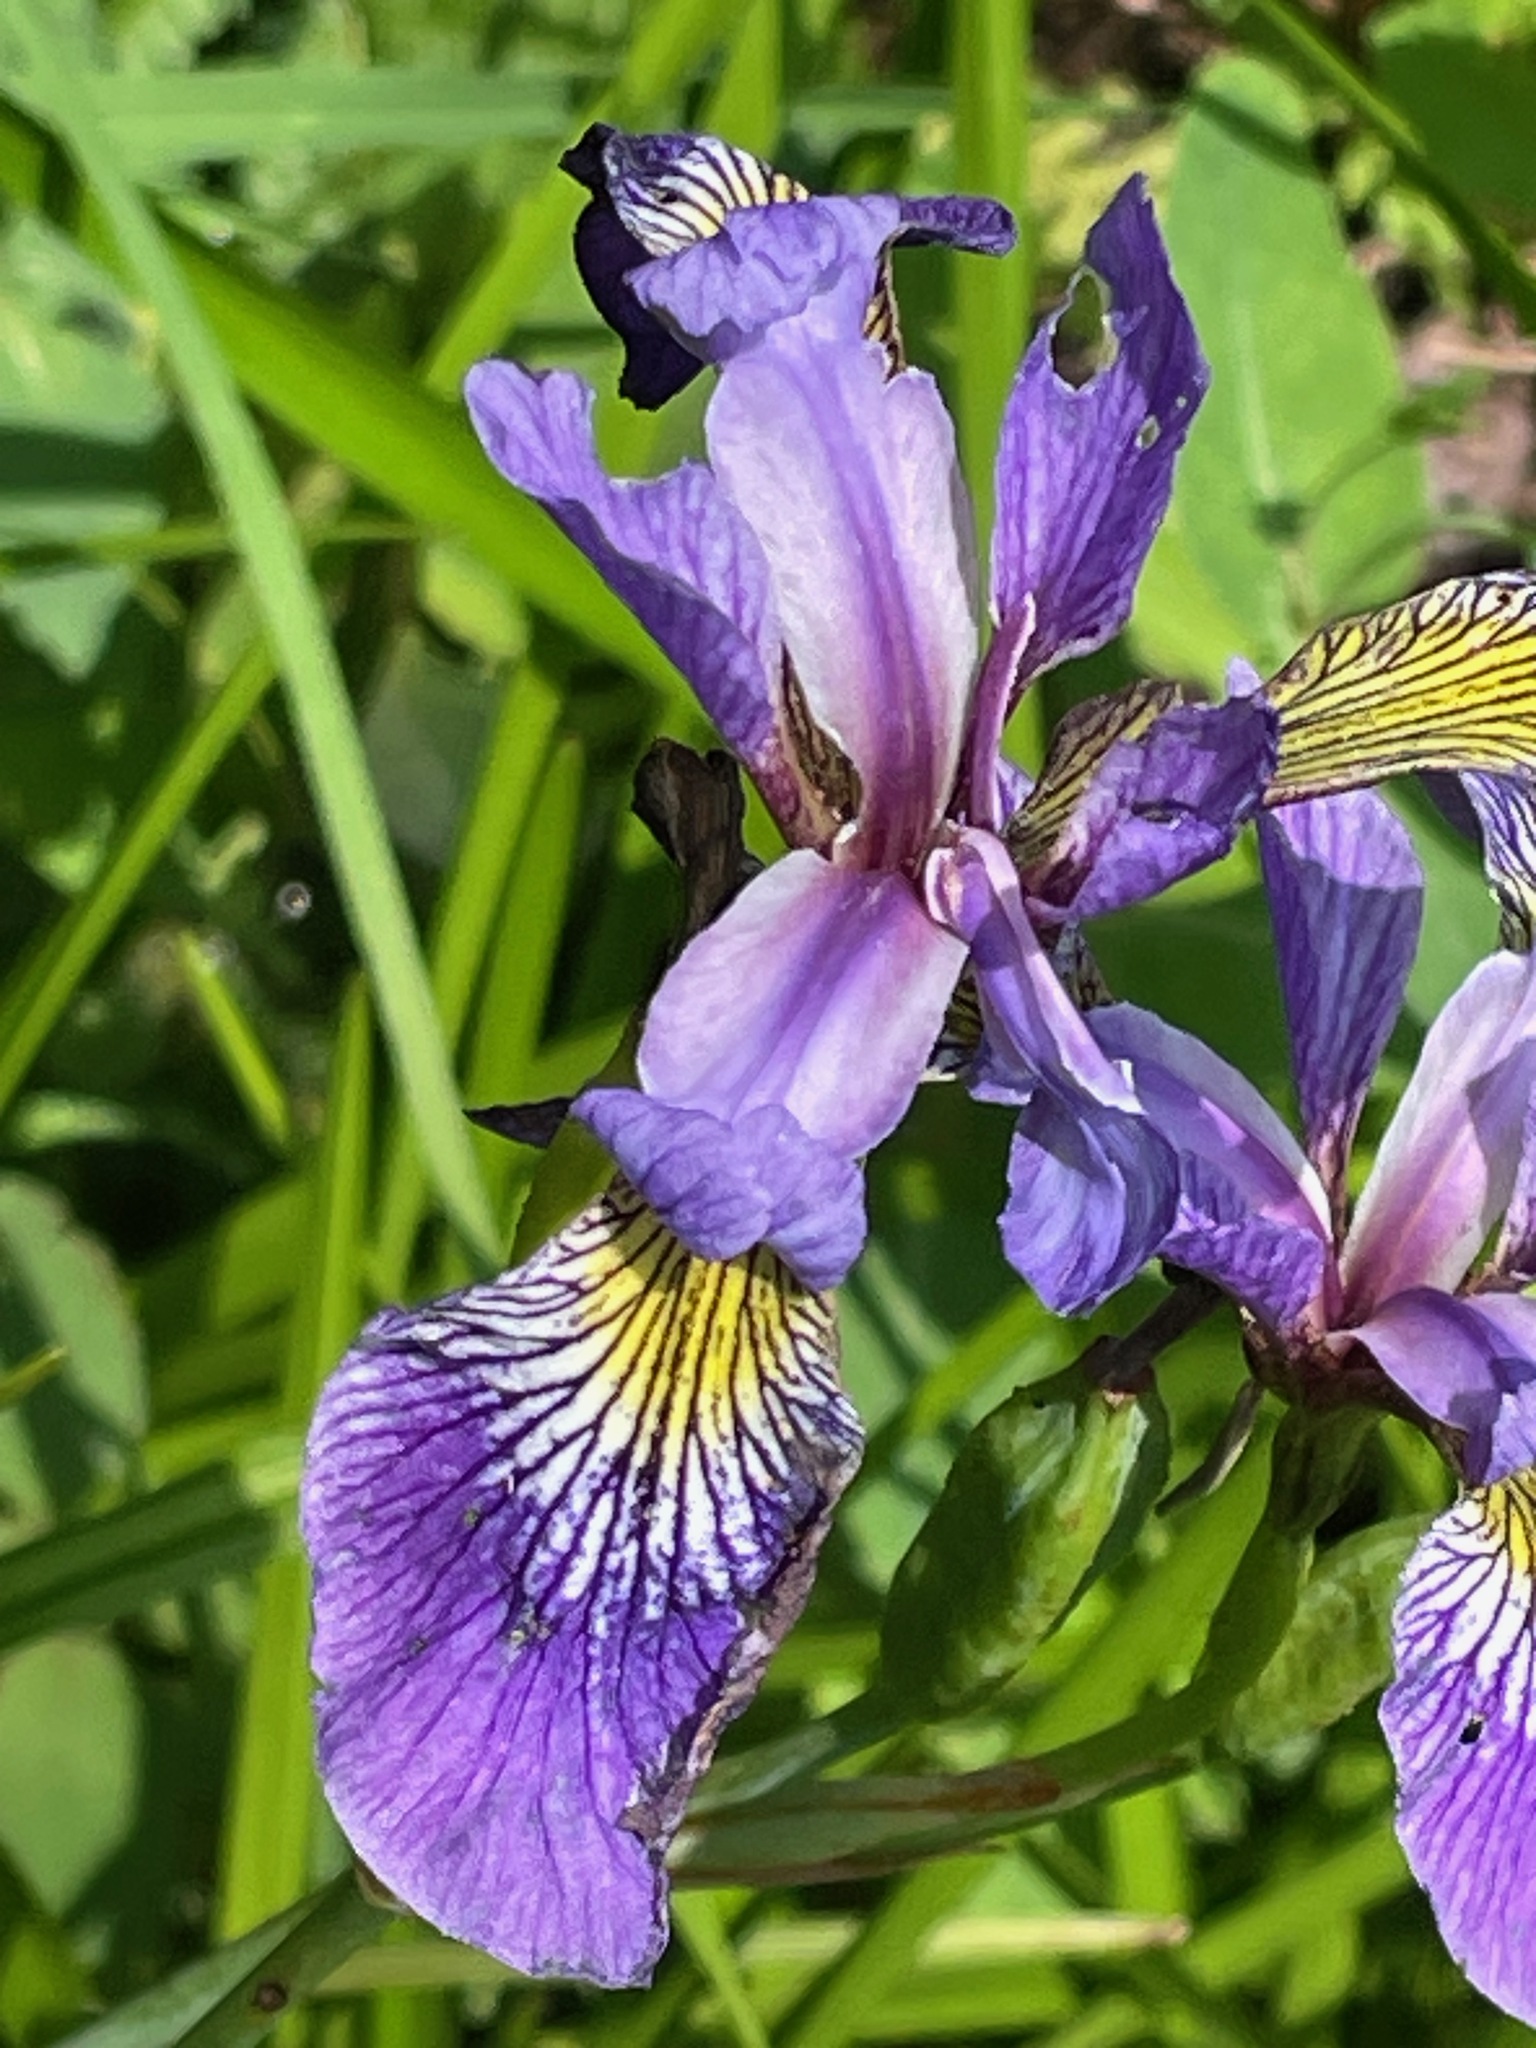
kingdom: Plantae
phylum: Tracheophyta
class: Liliopsida
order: Asparagales
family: Iridaceae
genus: Iris
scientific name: Iris versicolor
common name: Purple iris
